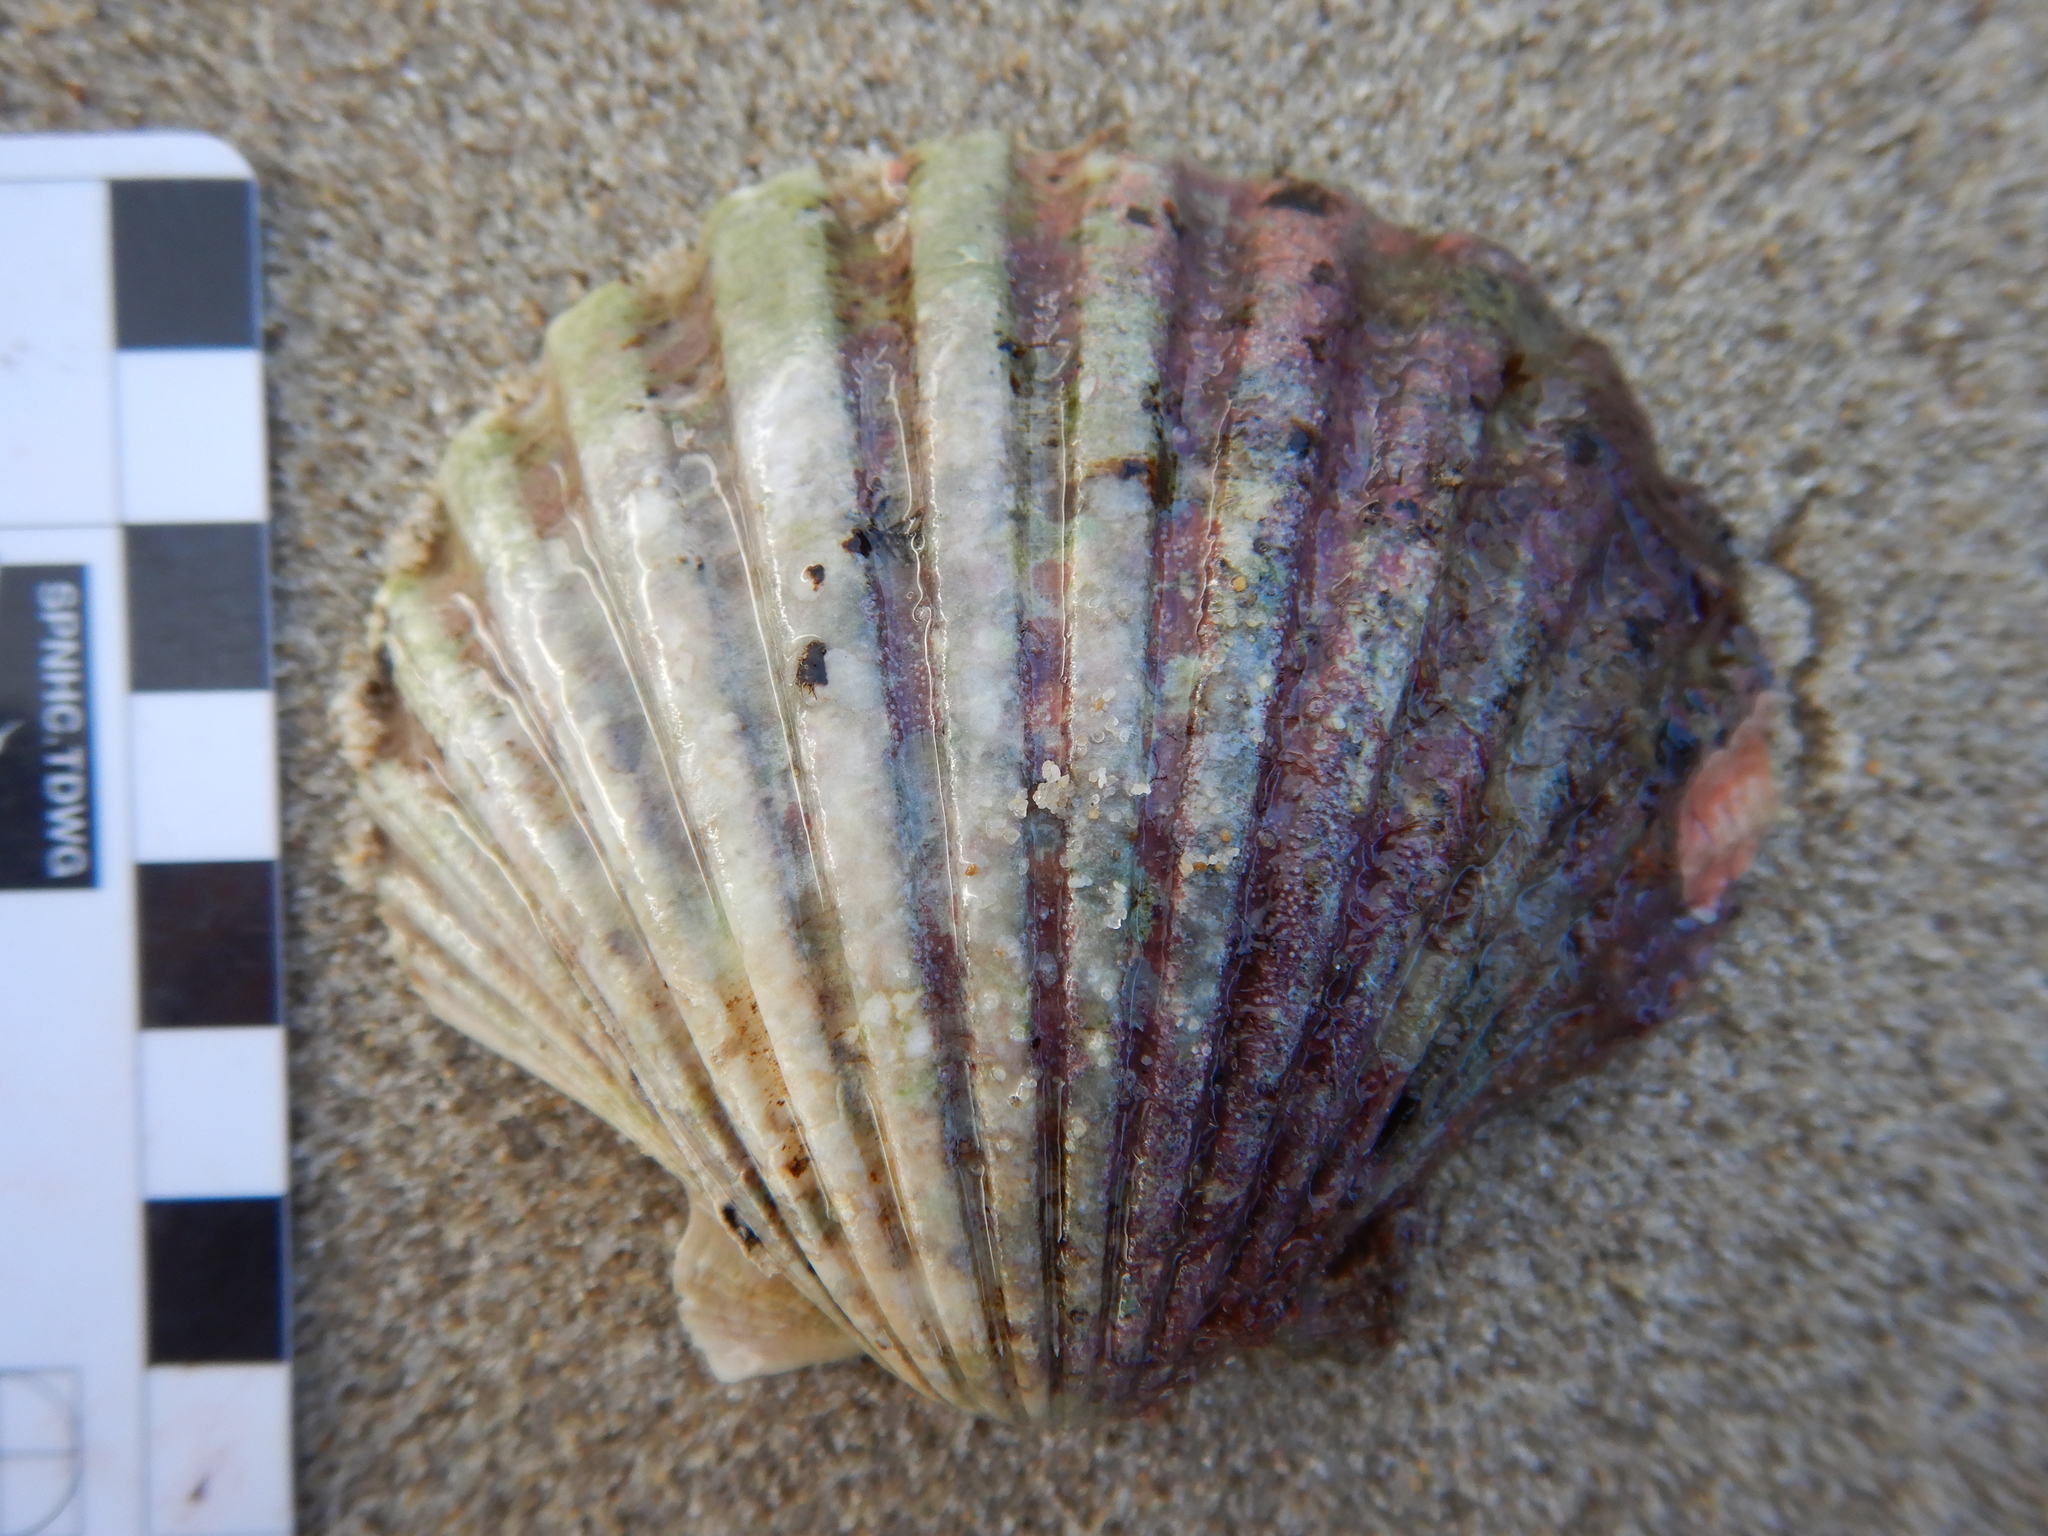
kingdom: Animalia
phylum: Mollusca
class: Bivalvia
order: Pectinida
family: Pectinidae
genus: Pecten
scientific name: Pecten fumatus
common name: Australian scallop
